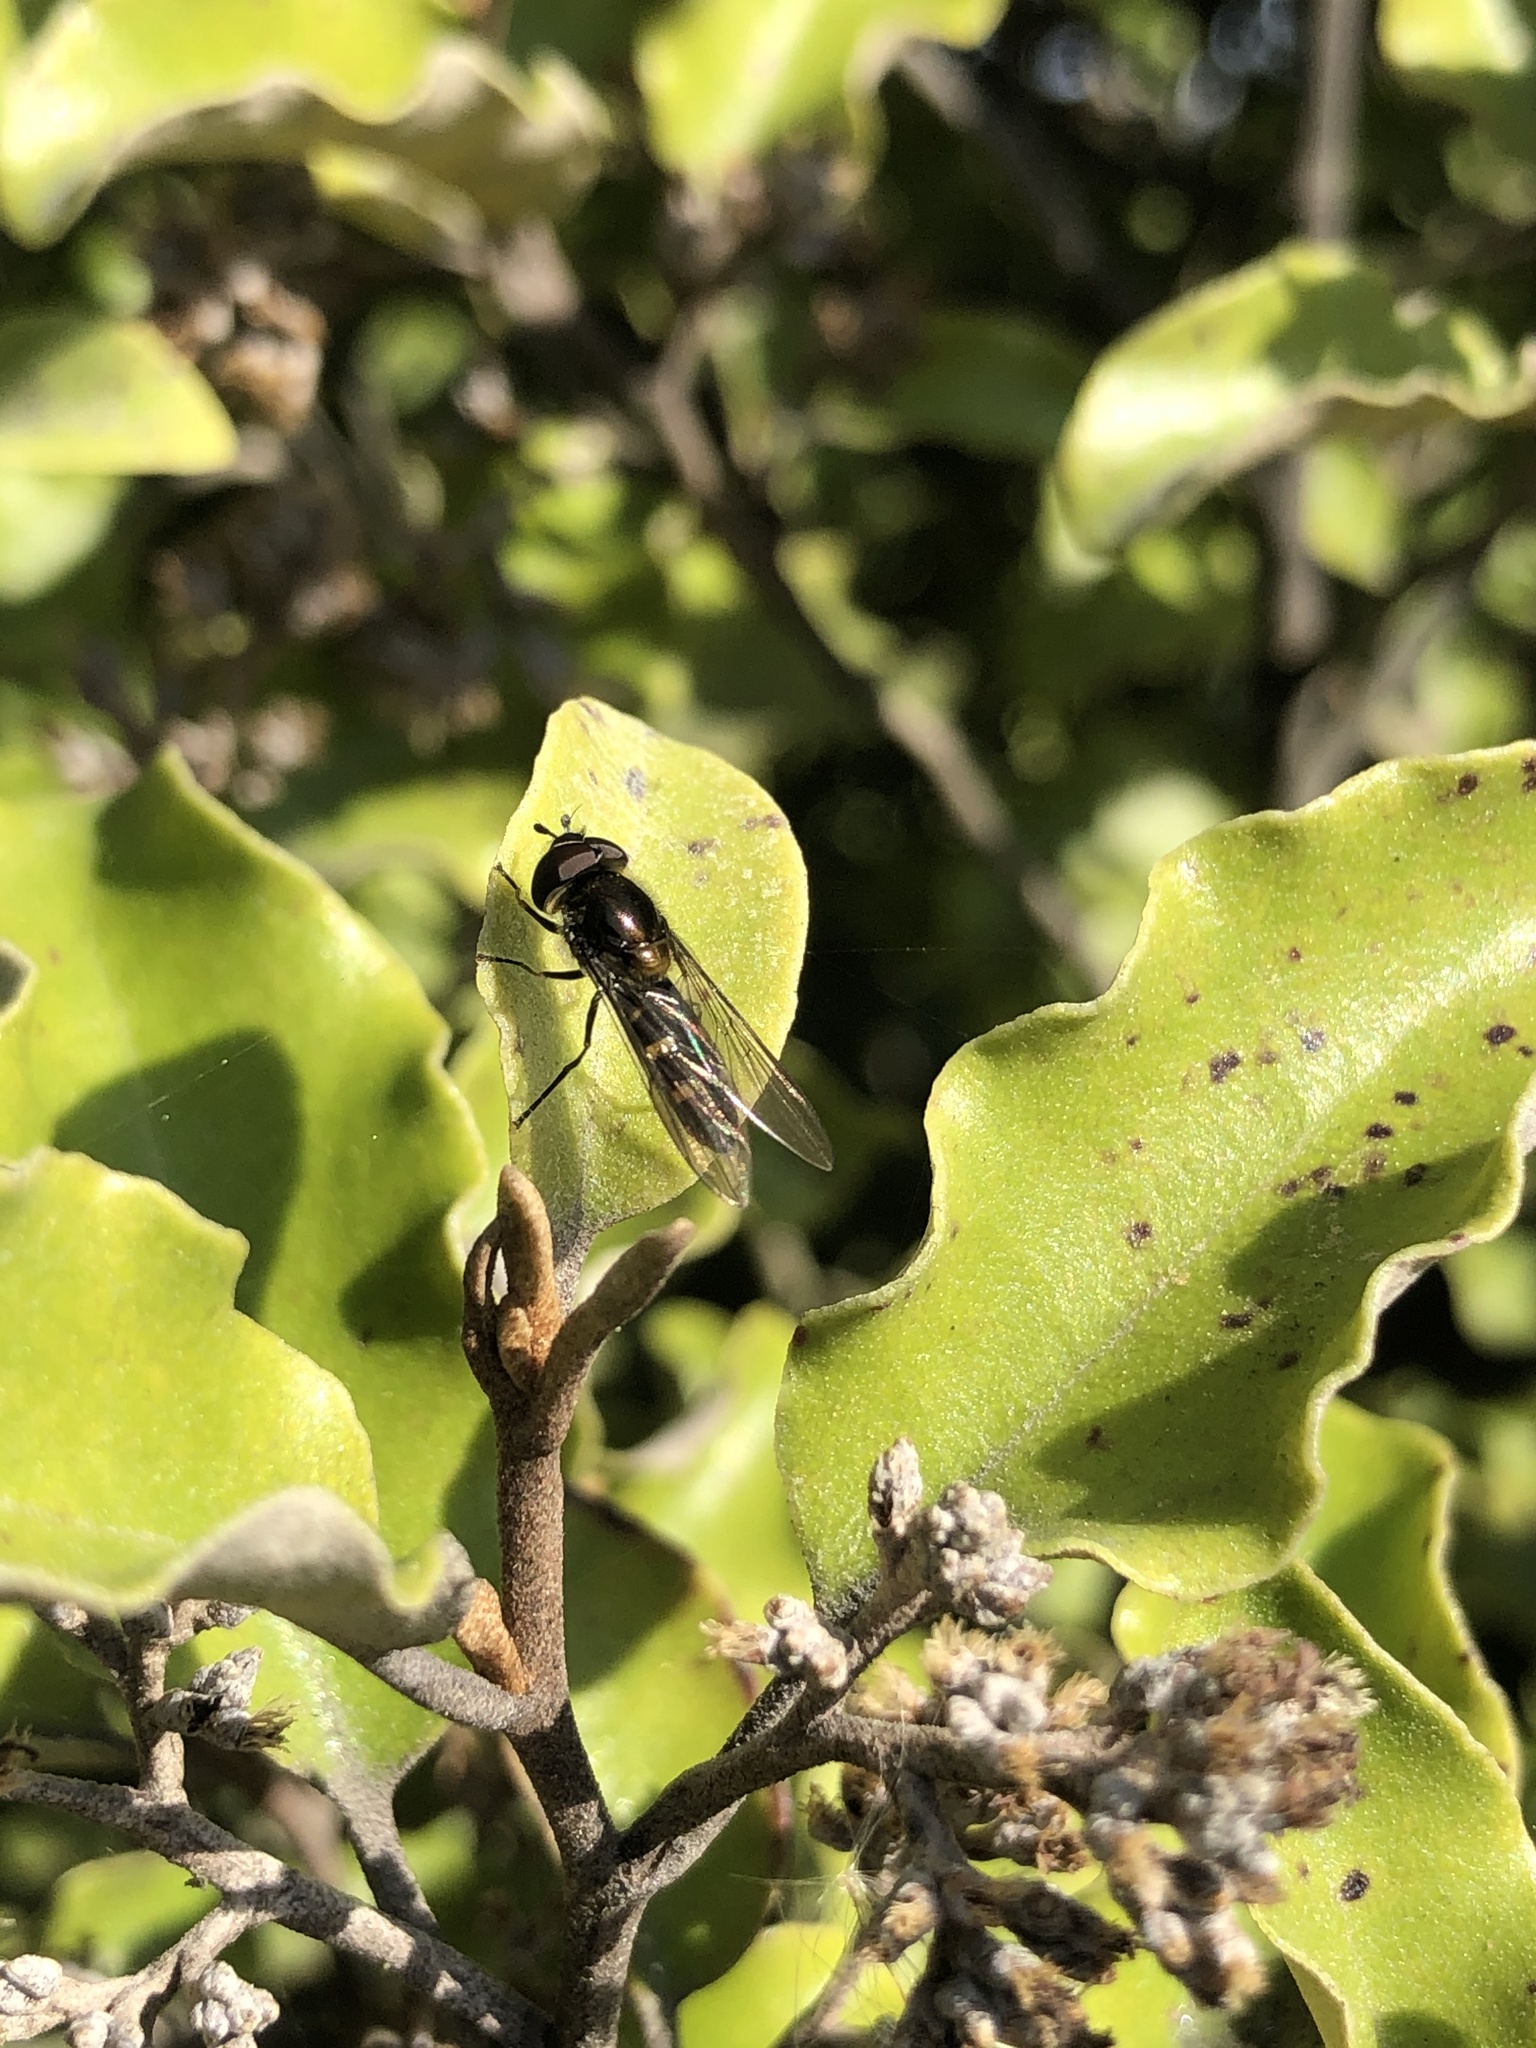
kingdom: Animalia
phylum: Arthropoda
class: Insecta
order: Diptera
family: Syrphidae
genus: Melangyna
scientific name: Melangyna novaezelandiae
